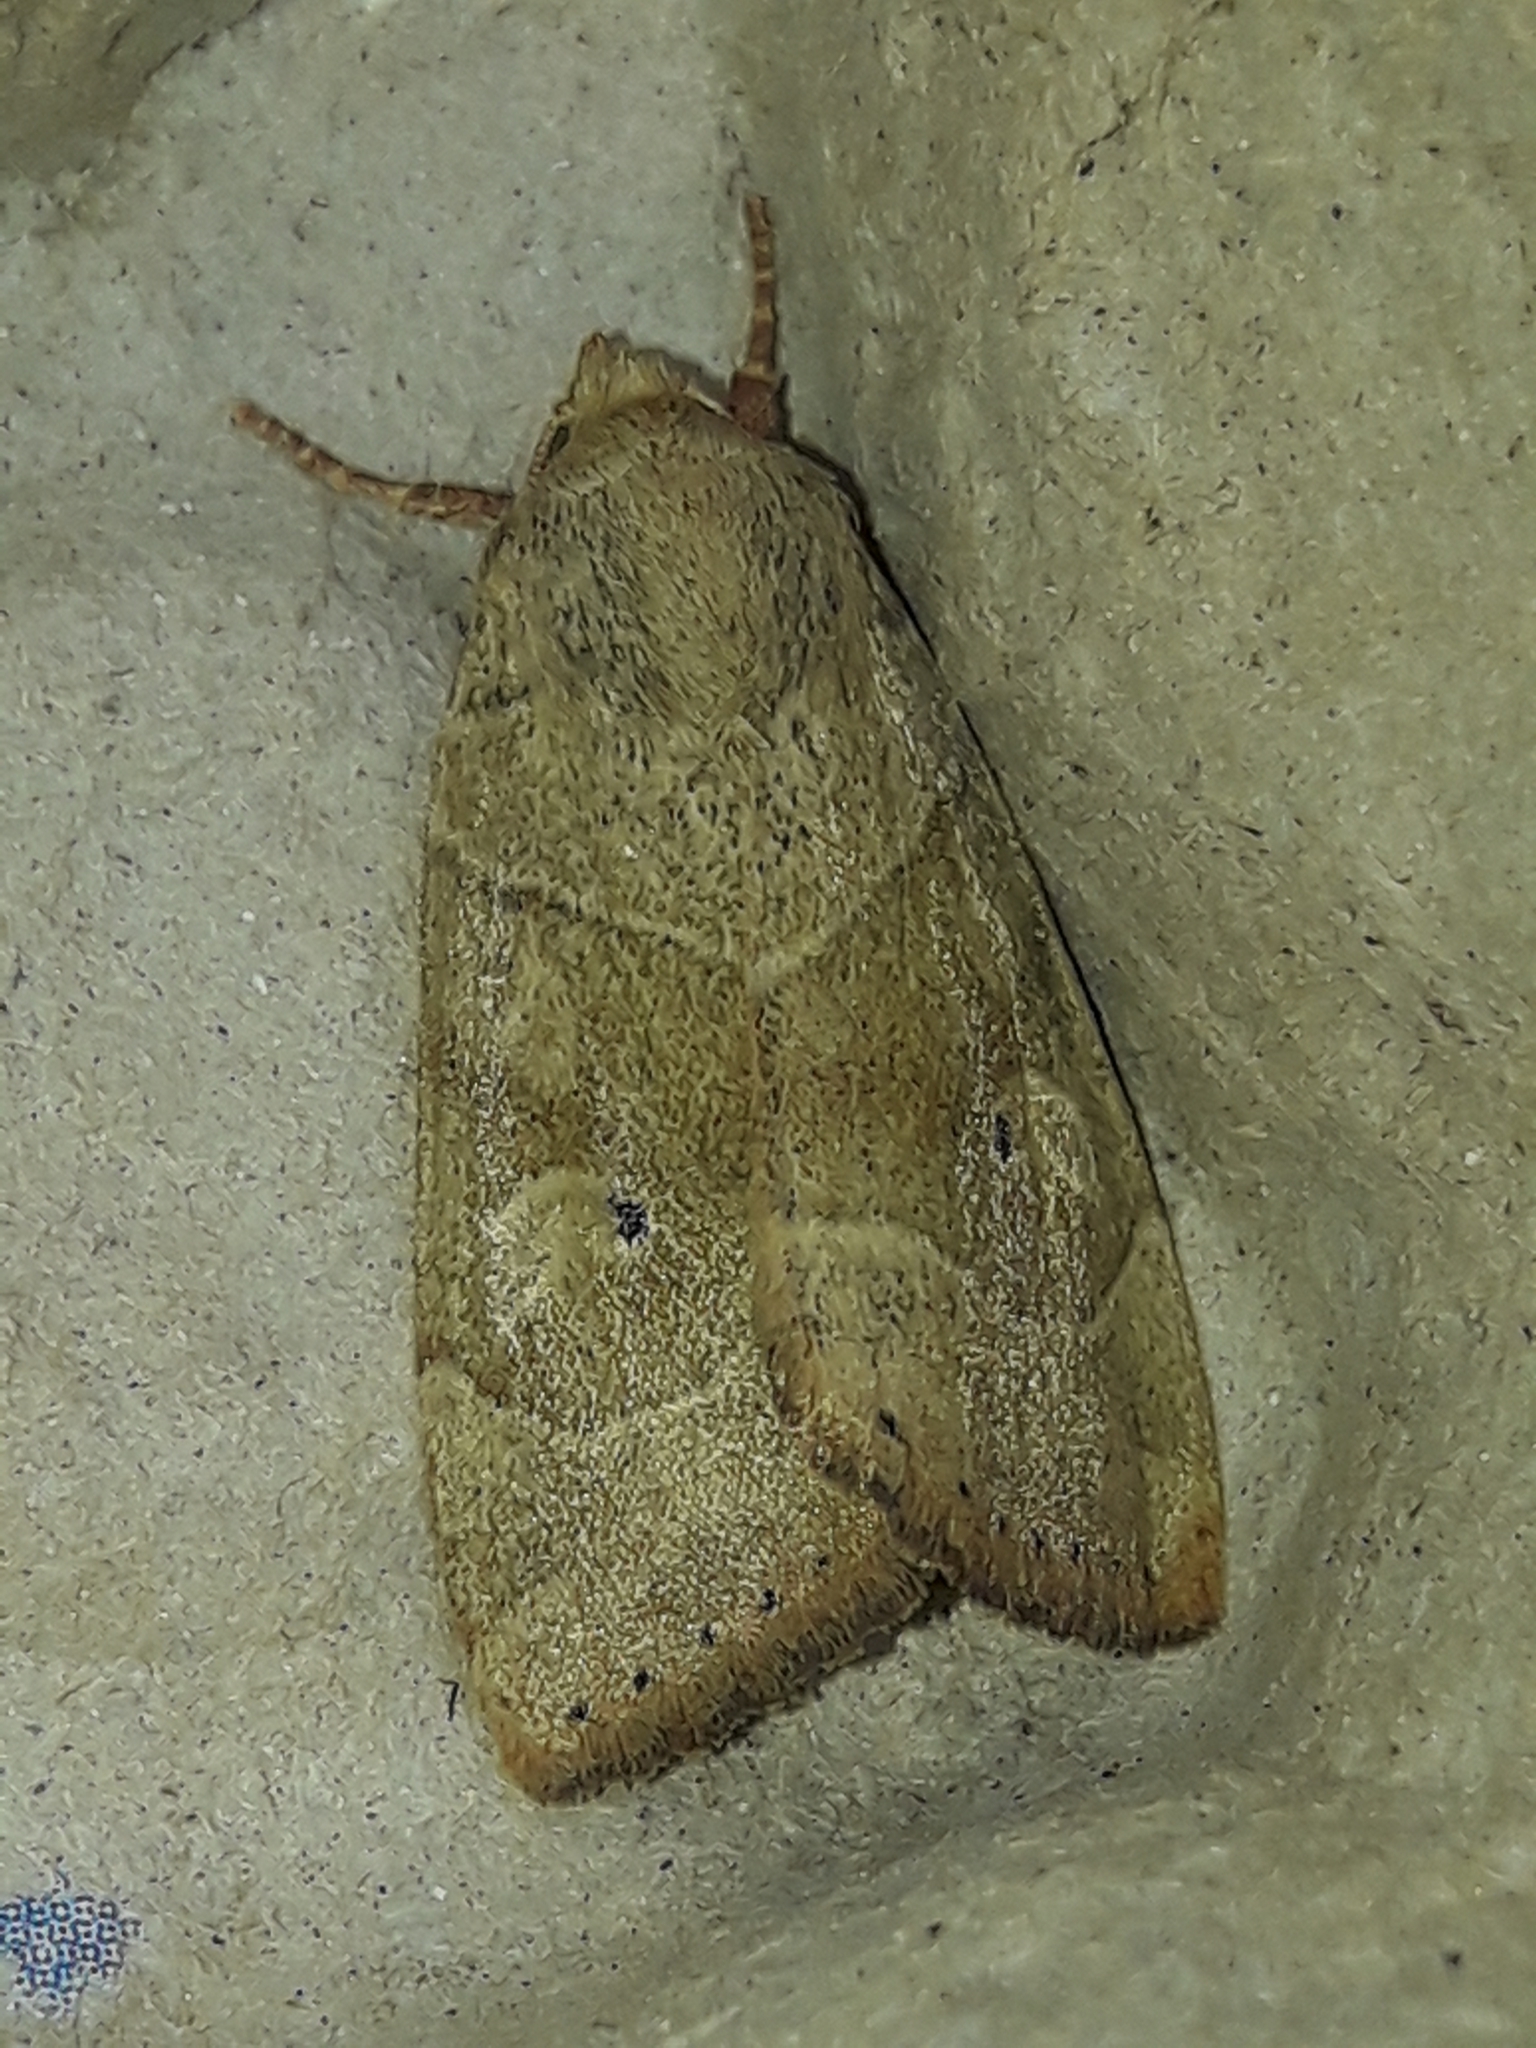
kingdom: Animalia
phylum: Arthropoda
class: Insecta
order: Lepidoptera
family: Noctuidae
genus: Cosmia
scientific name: Cosmia trapezina
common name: Dun-bar
